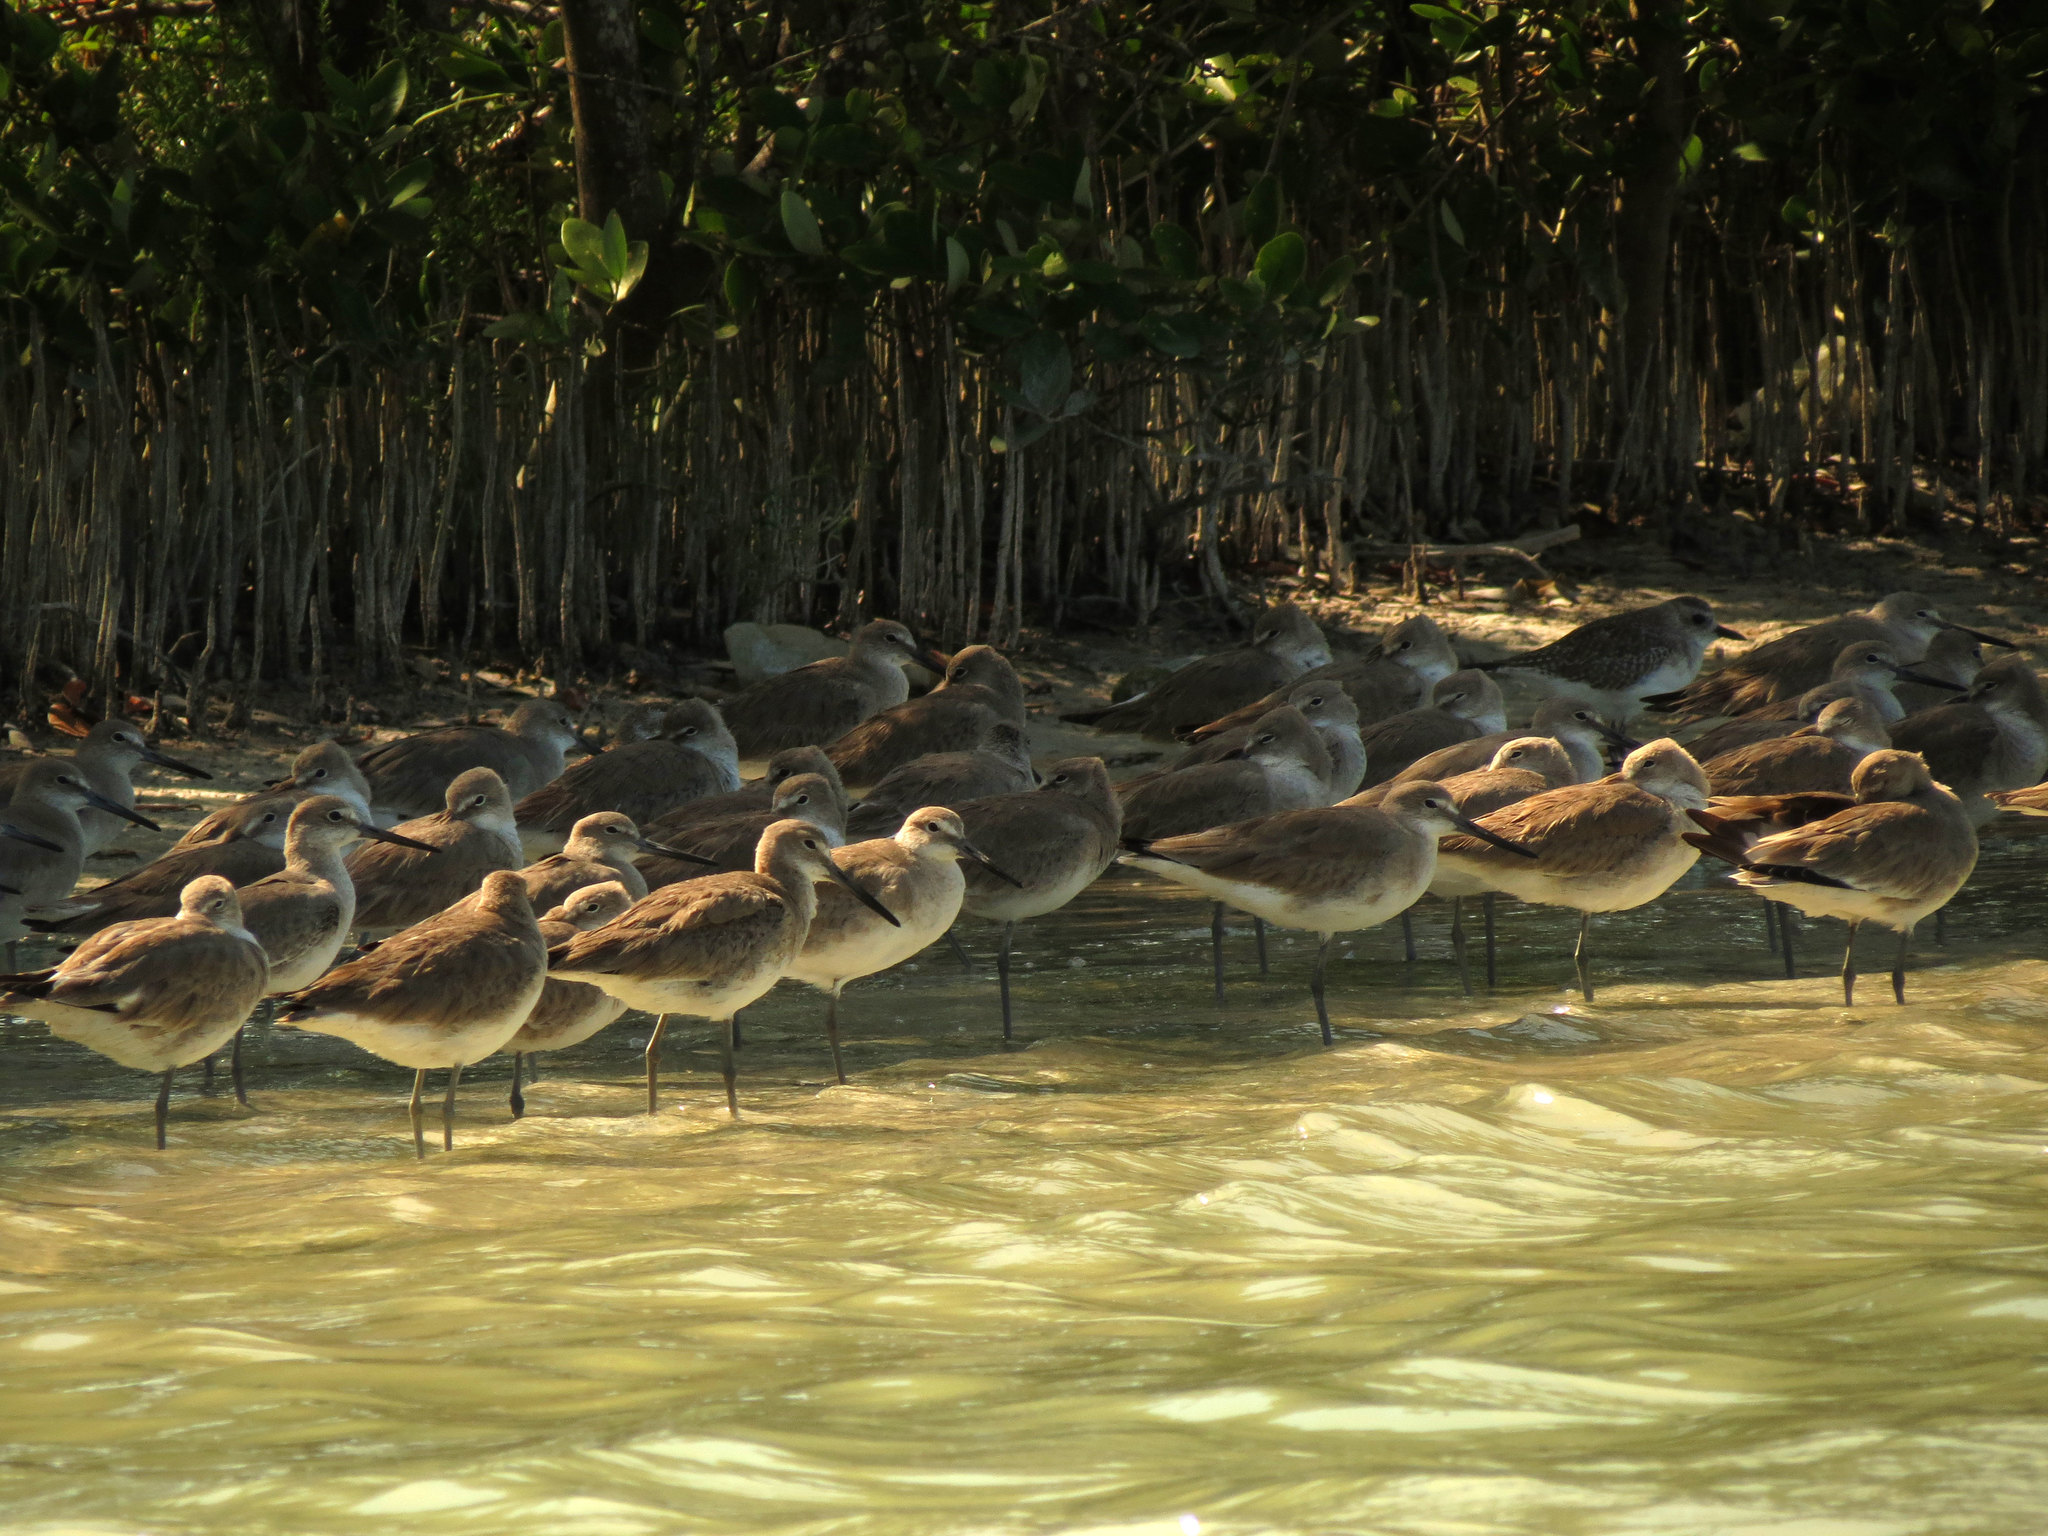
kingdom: Animalia
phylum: Chordata
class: Aves
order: Charadriiformes
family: Scolopacidae
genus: Tringa
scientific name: Tringa semipalmata
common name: Willet
